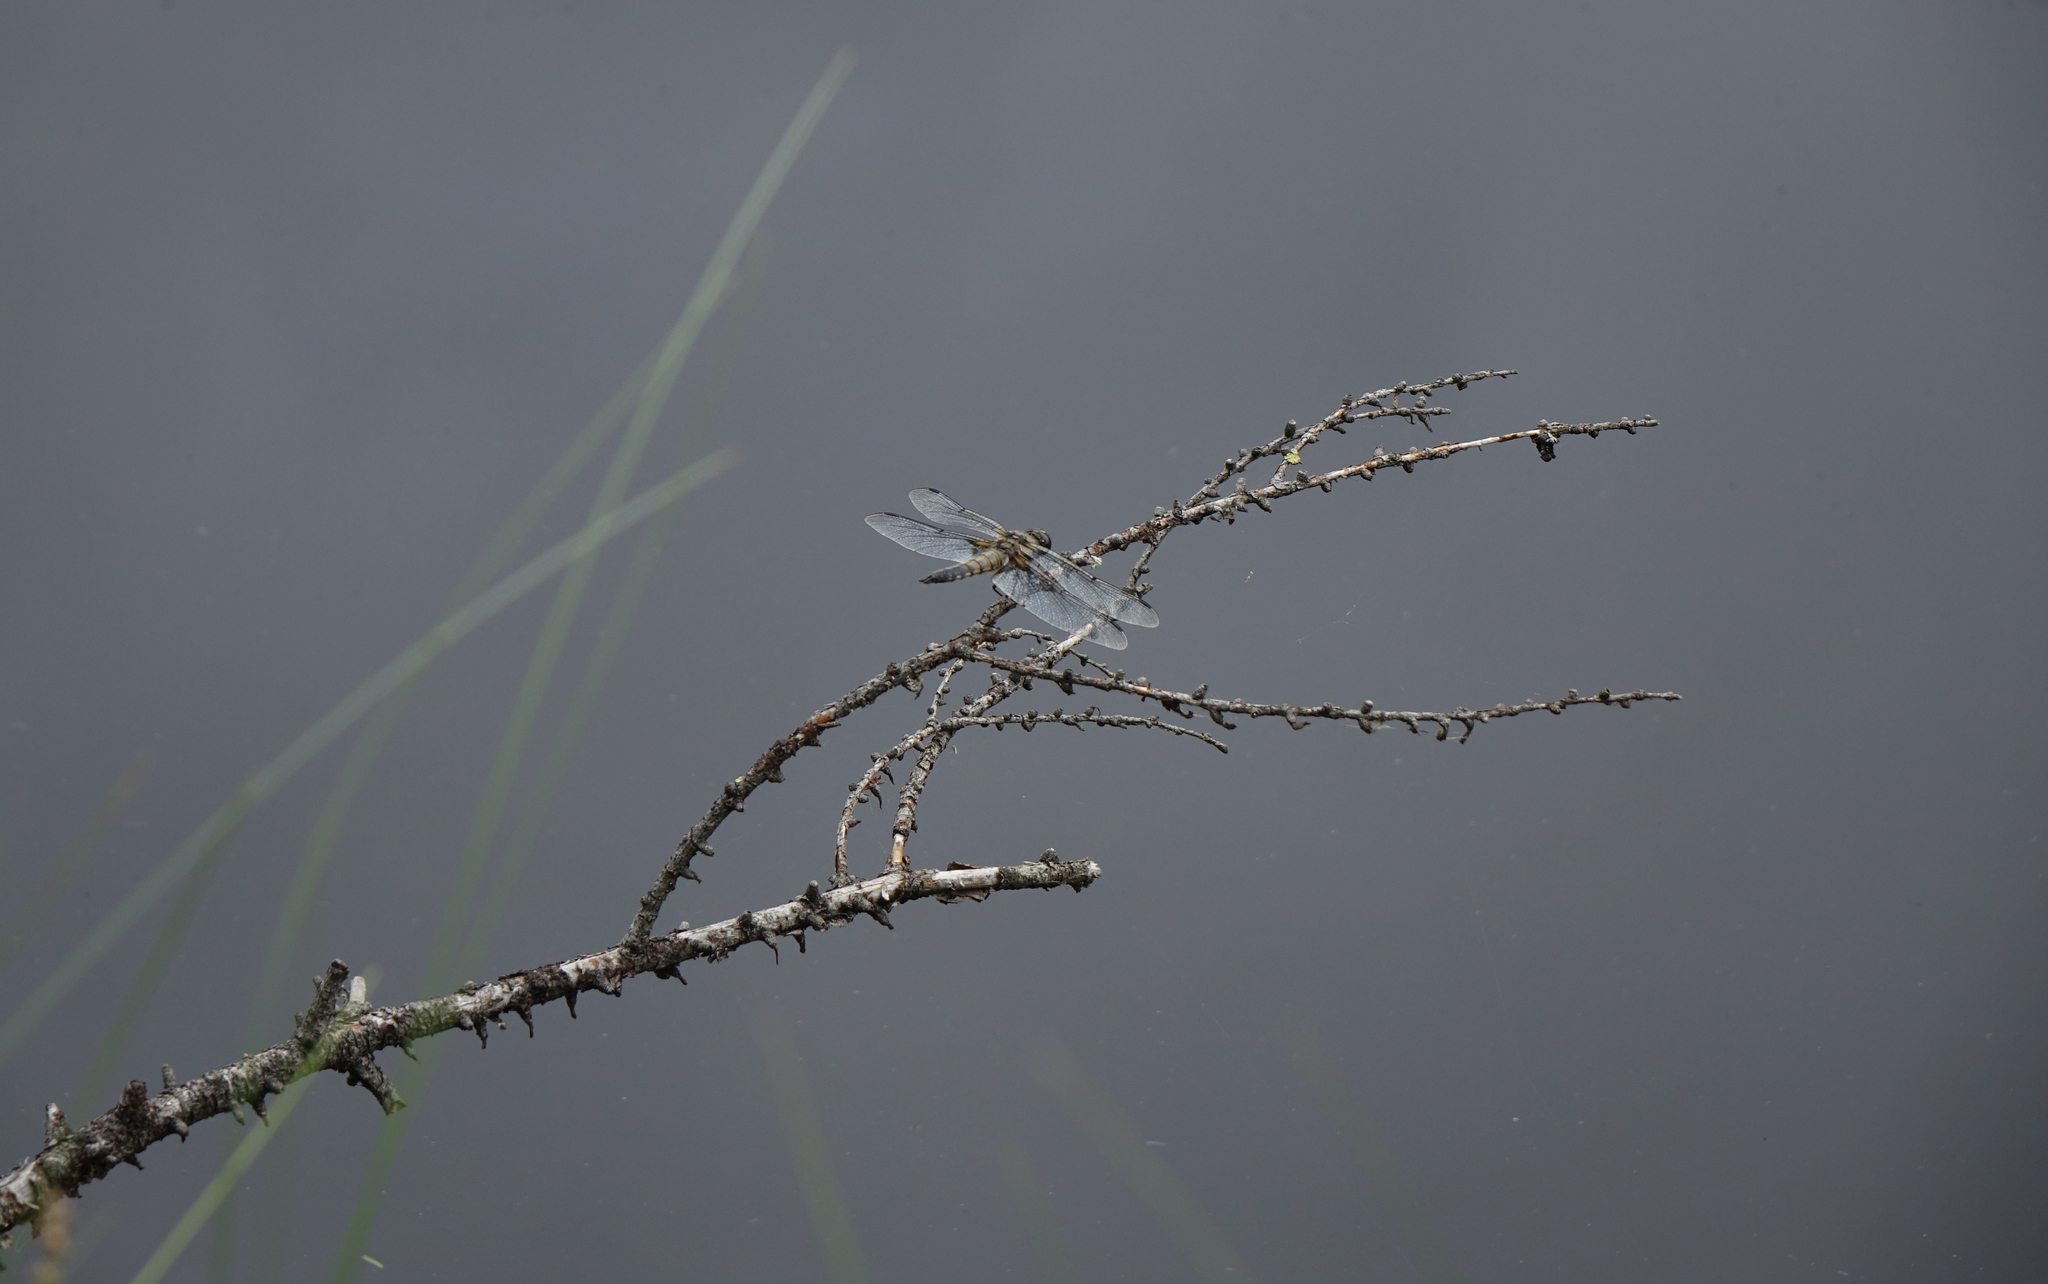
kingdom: Animalia
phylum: Arthropoda
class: Insecta
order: Odonata
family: Libellulidae
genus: Libellula
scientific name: Libellula quadrimaculata
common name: Four-spotted chaser
